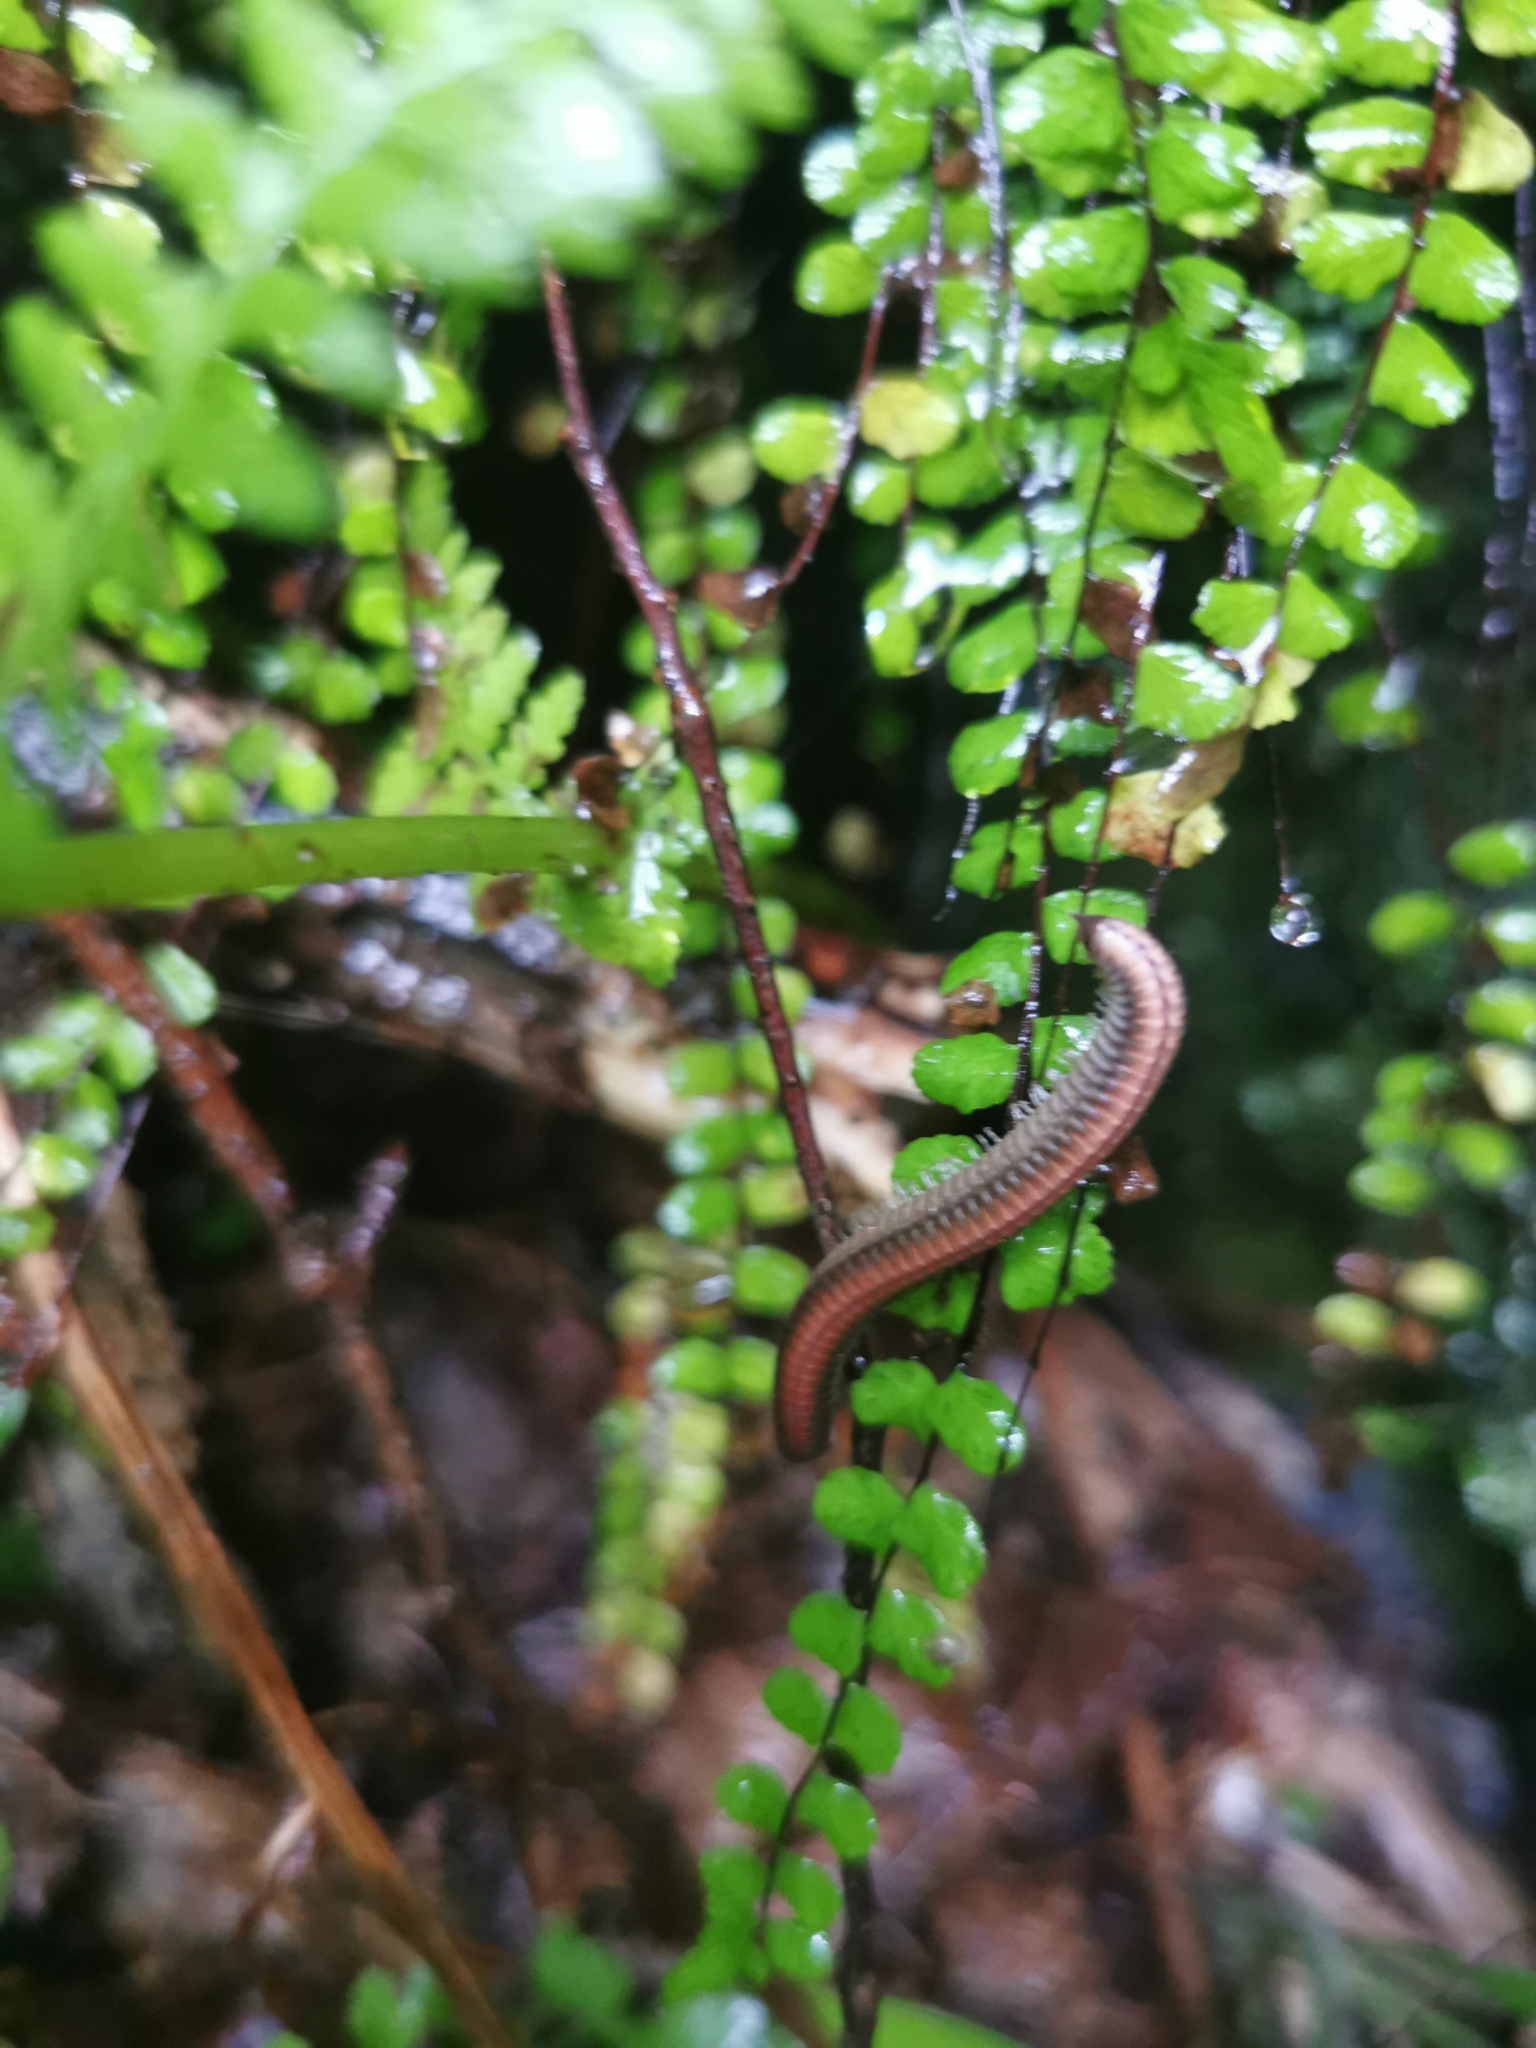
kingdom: Animalia
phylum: Arthropoda
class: Diplopoda
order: Julida
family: Julidae
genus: Ommatoiulus
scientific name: Ommatoiulus sabulosus
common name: Striped millipede
